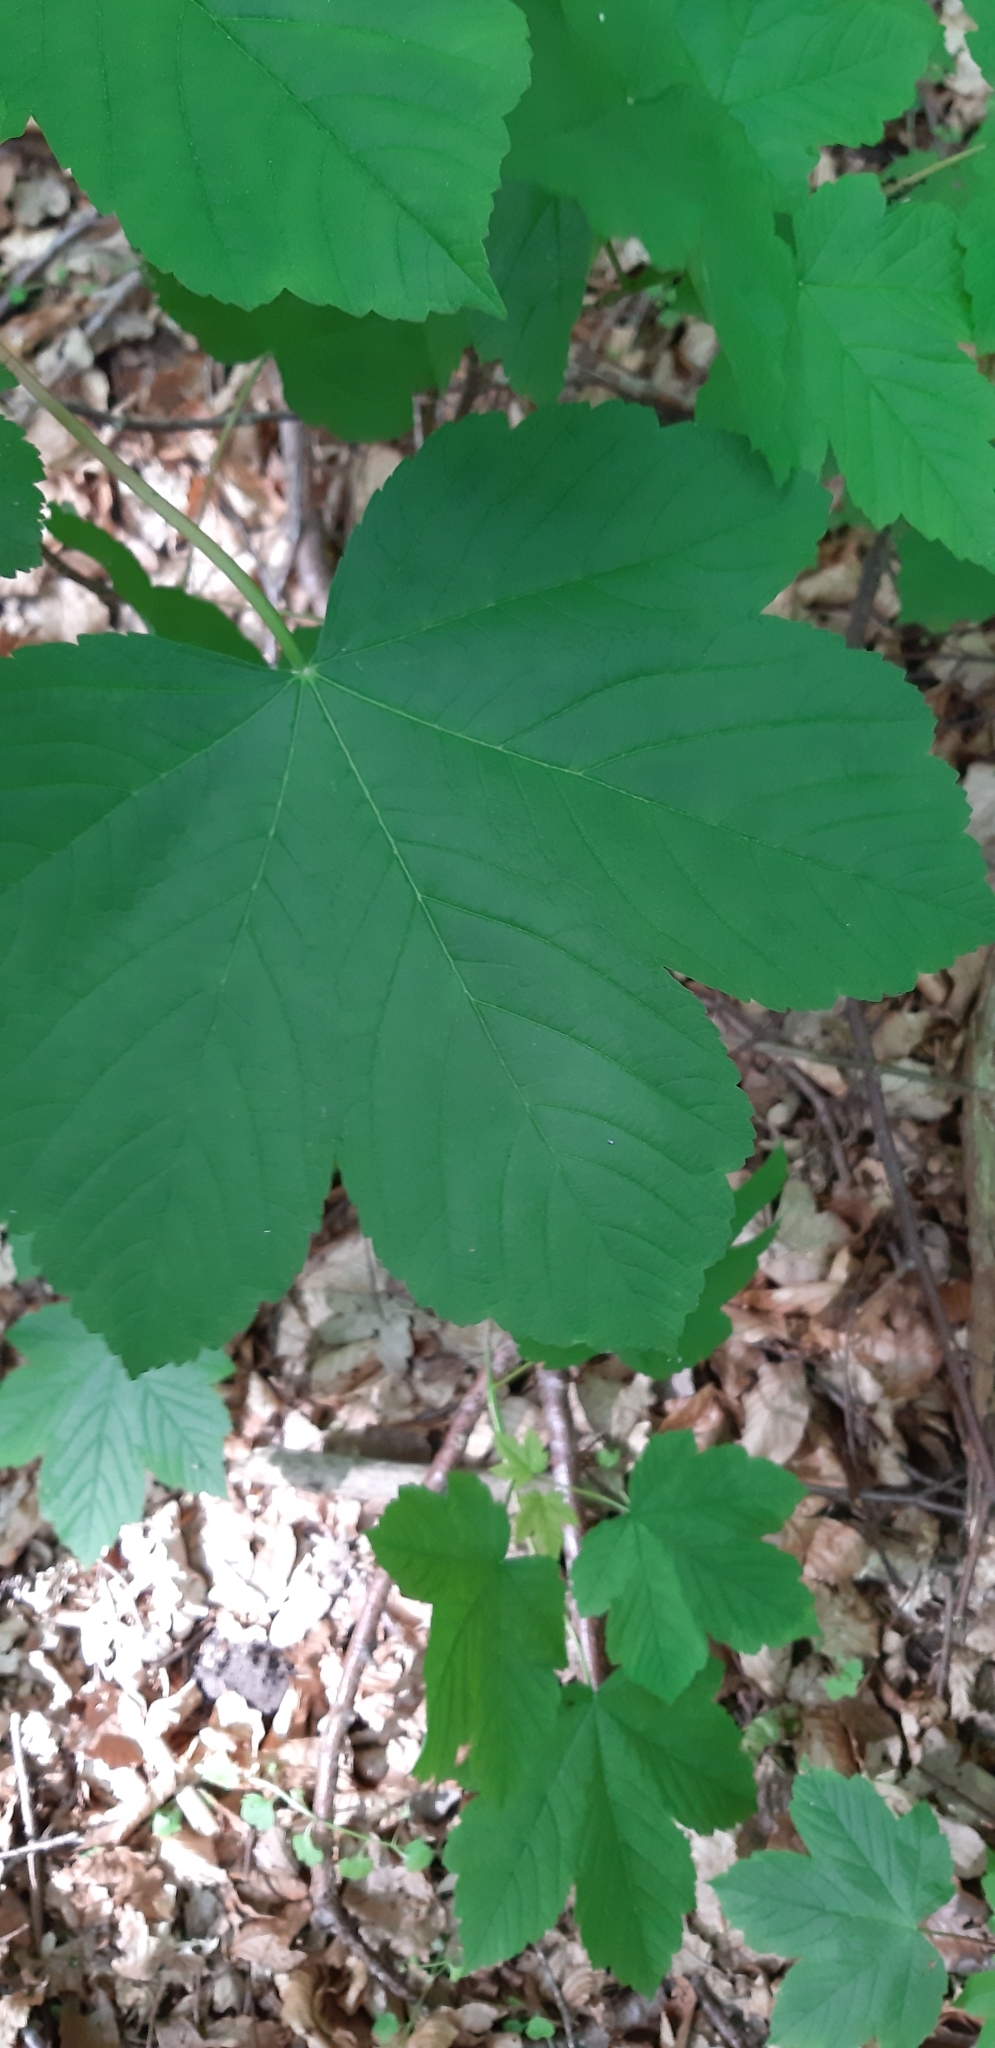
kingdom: Plantae
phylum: Tracheophyta
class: Magnoliopsida
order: Sapindales
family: Sapindaceae
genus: Acer
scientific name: Acer pseudoplatanus
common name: Sycamore
